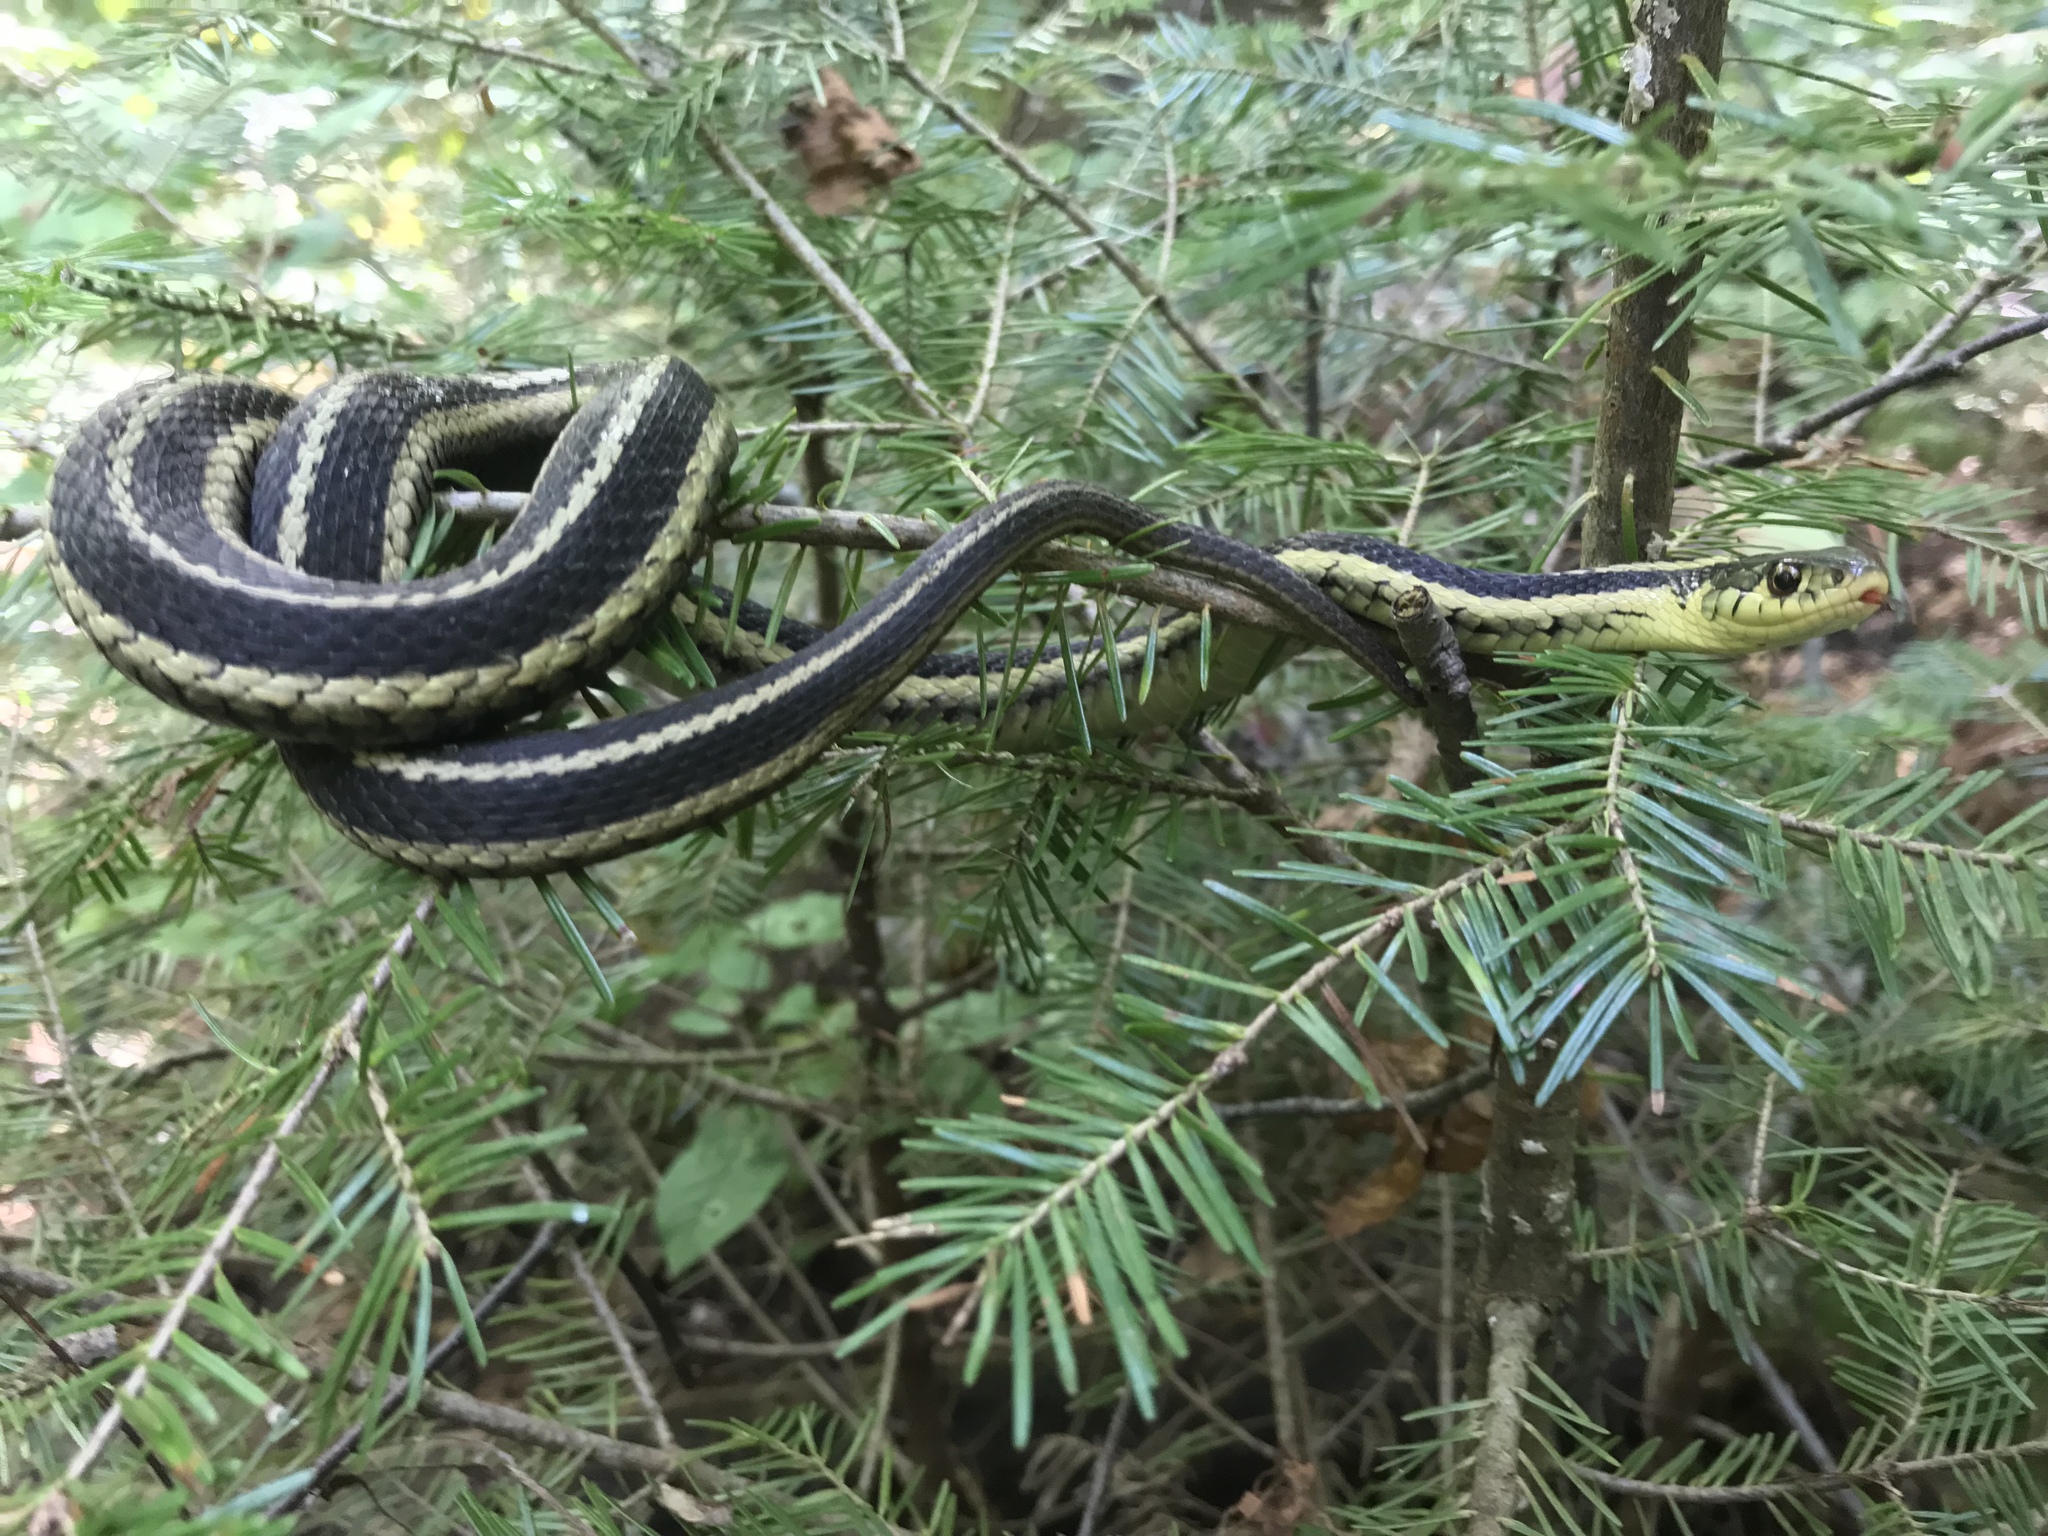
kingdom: Animalia
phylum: Chordata
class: Squamata
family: Colubridae
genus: Thamnophis
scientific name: Thamnophis sirtalis
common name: Common garter snake
